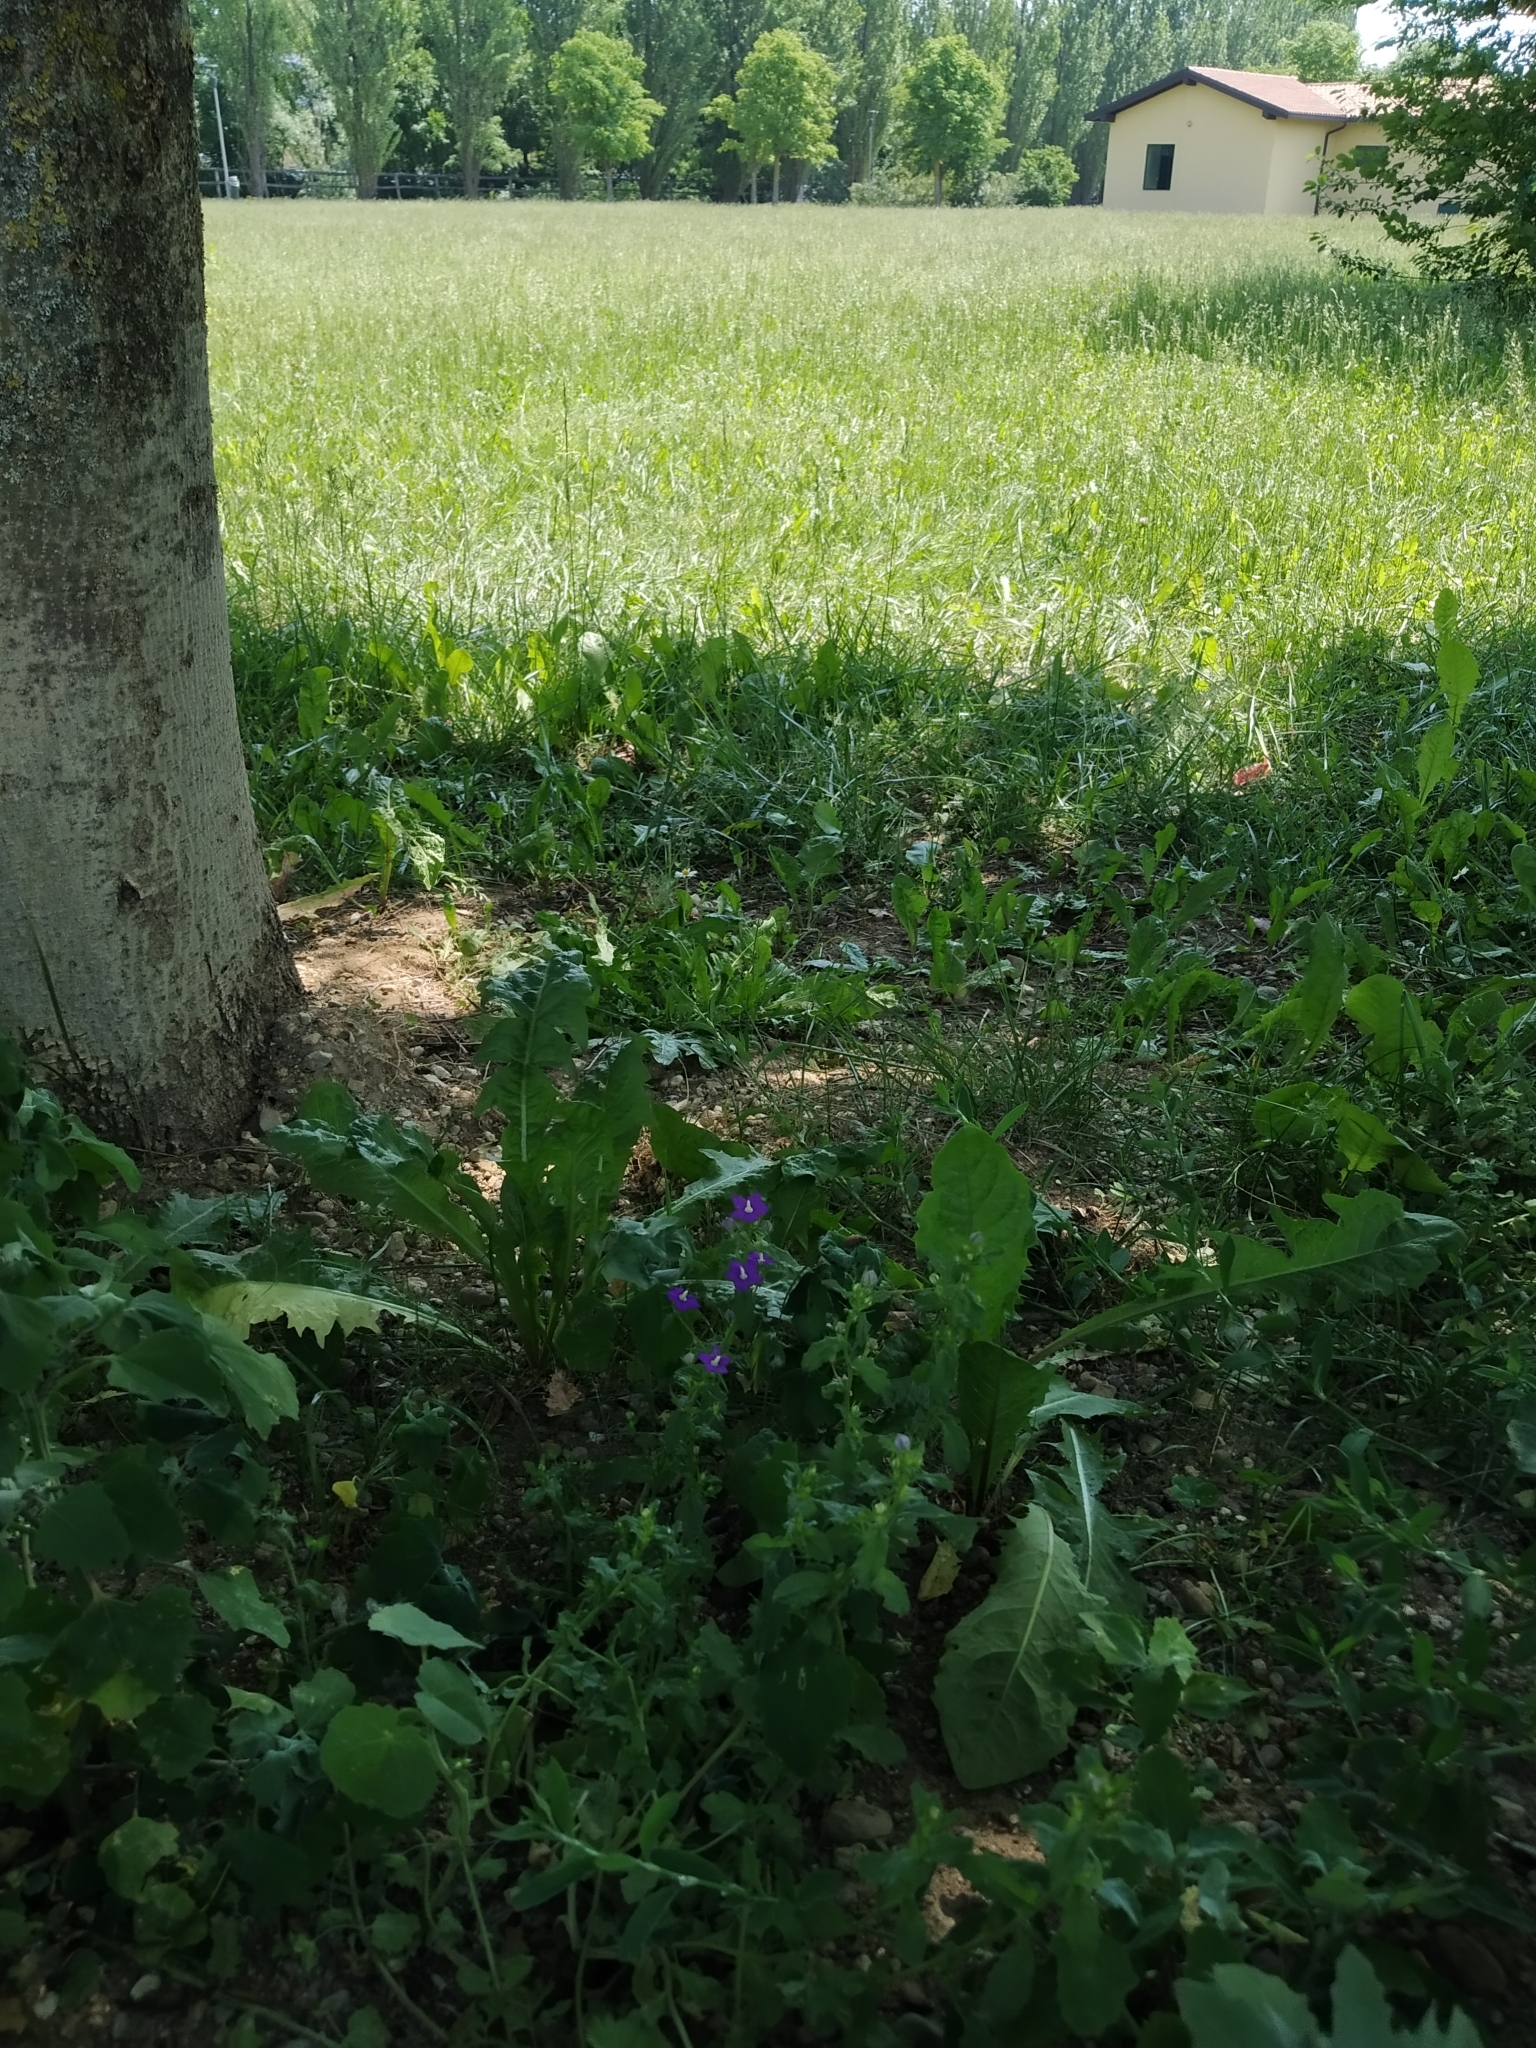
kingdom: Plantae
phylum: Tracheophyta
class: Magnoliopsida
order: Asterales
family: Campanulaceae
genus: Legousia
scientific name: Legousia speculum-veneris
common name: Large venus's-looking-glass
